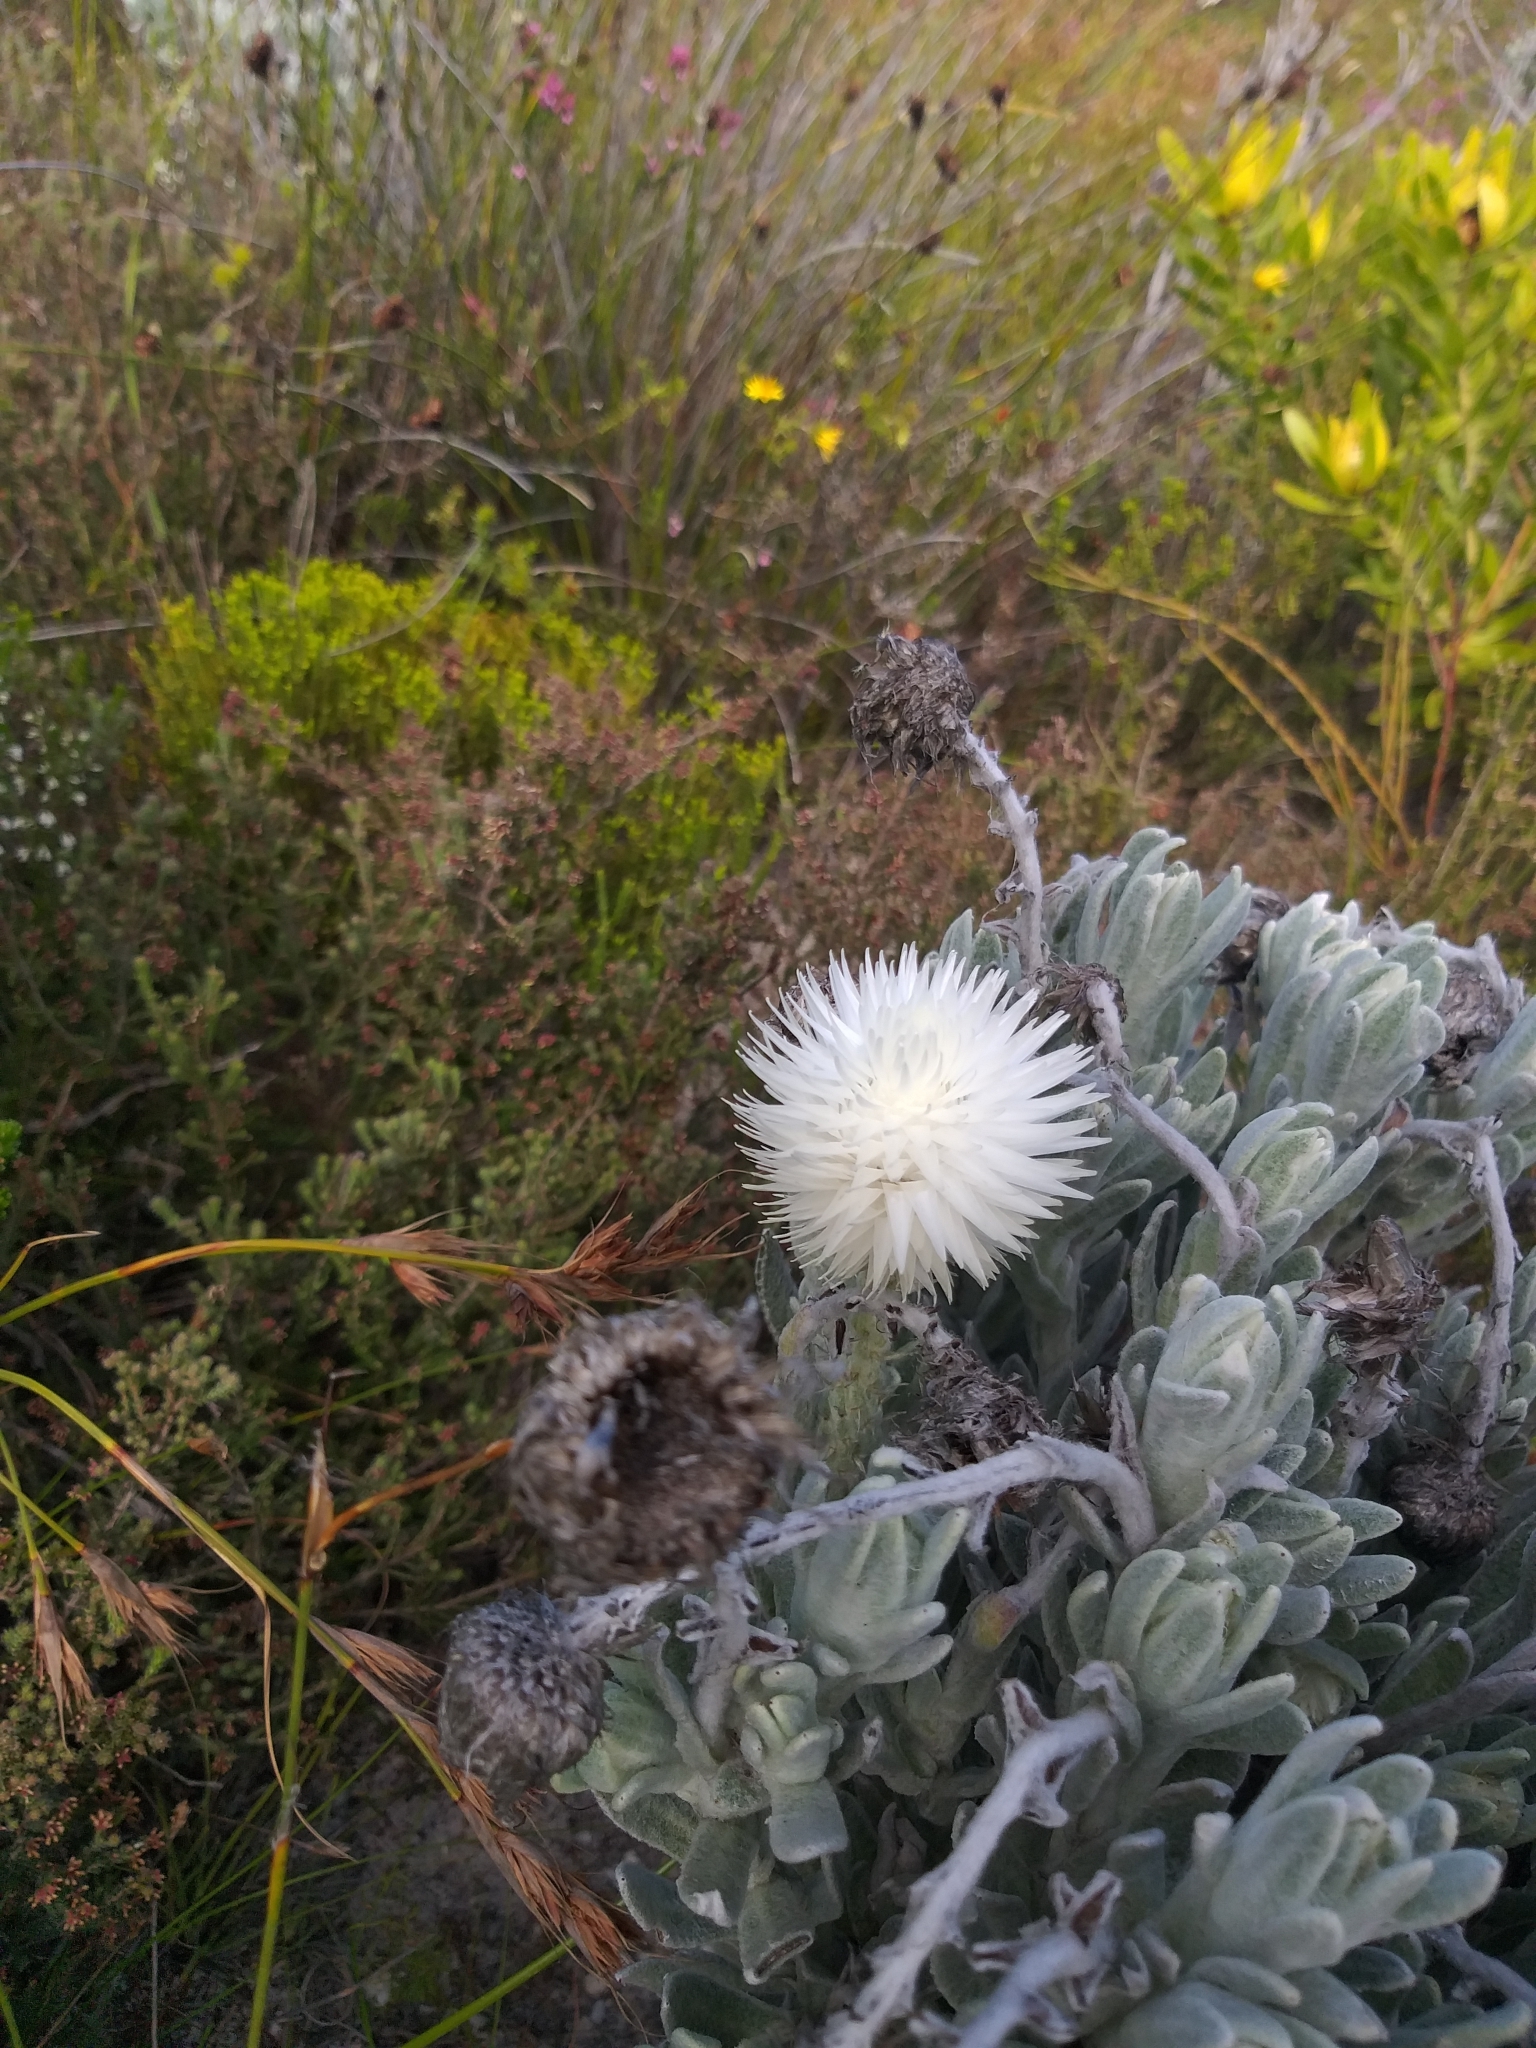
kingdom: Plantae
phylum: Tracheophyta
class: Magnoliopsida
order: Asterales
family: Asteraceae
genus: Syncarpha
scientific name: Syncarpha vestita
